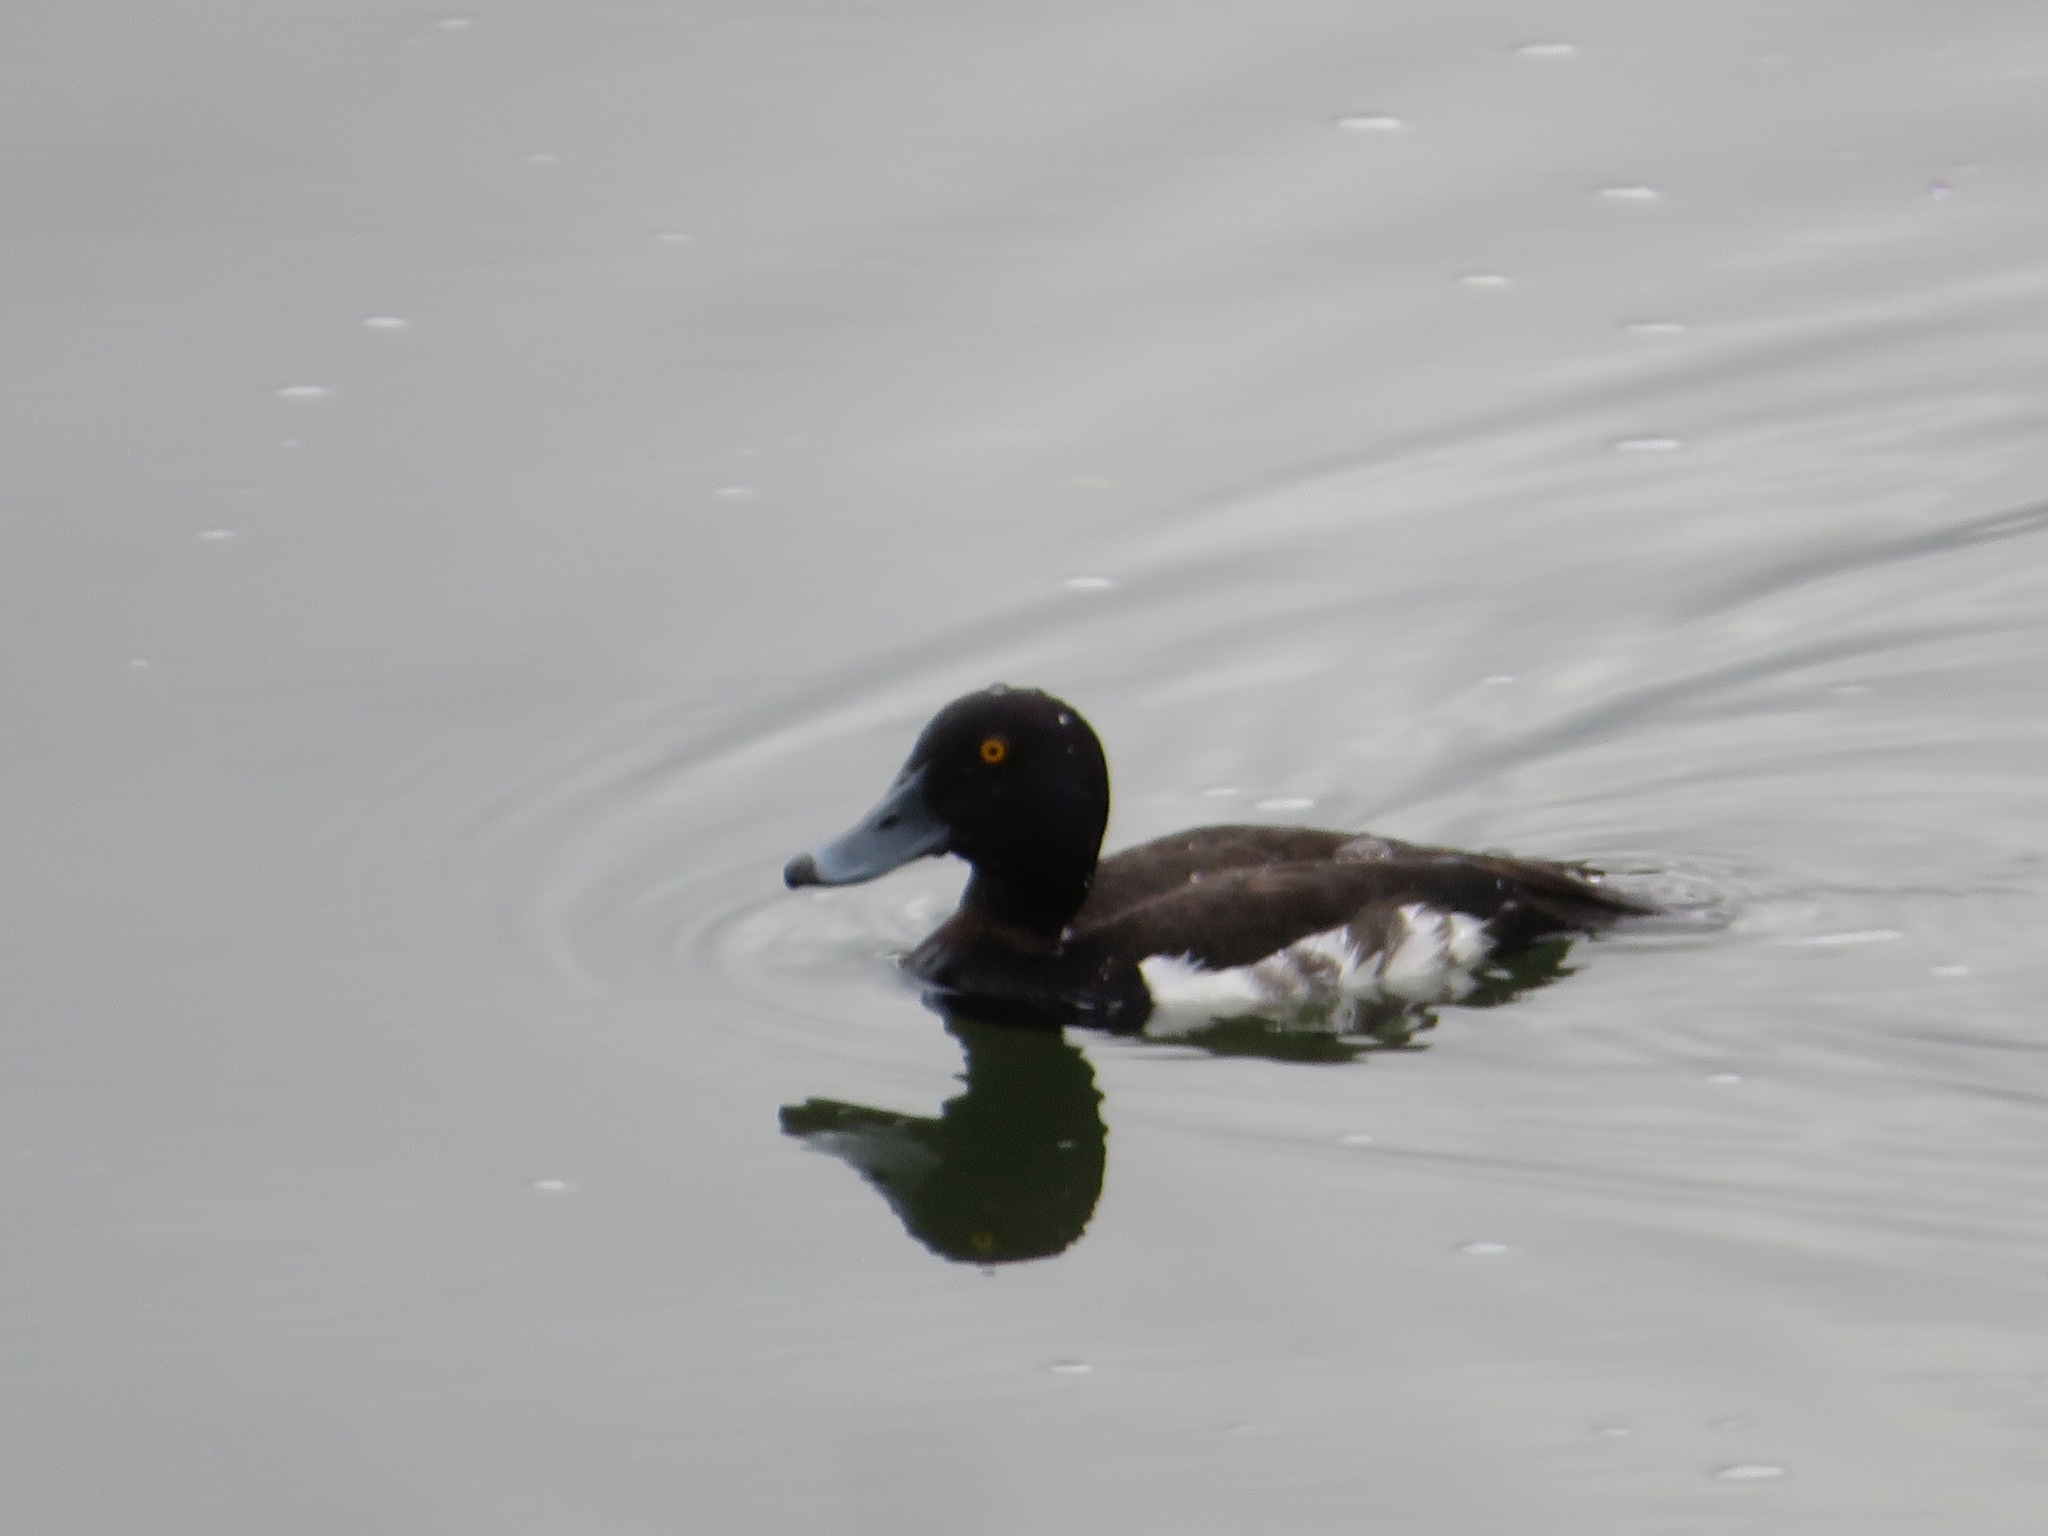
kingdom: Animalia
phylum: Chordata
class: Aves
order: Anseriformes
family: Anatidae
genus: Aythya
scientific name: Aythya fuligula
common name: Tufted duck
